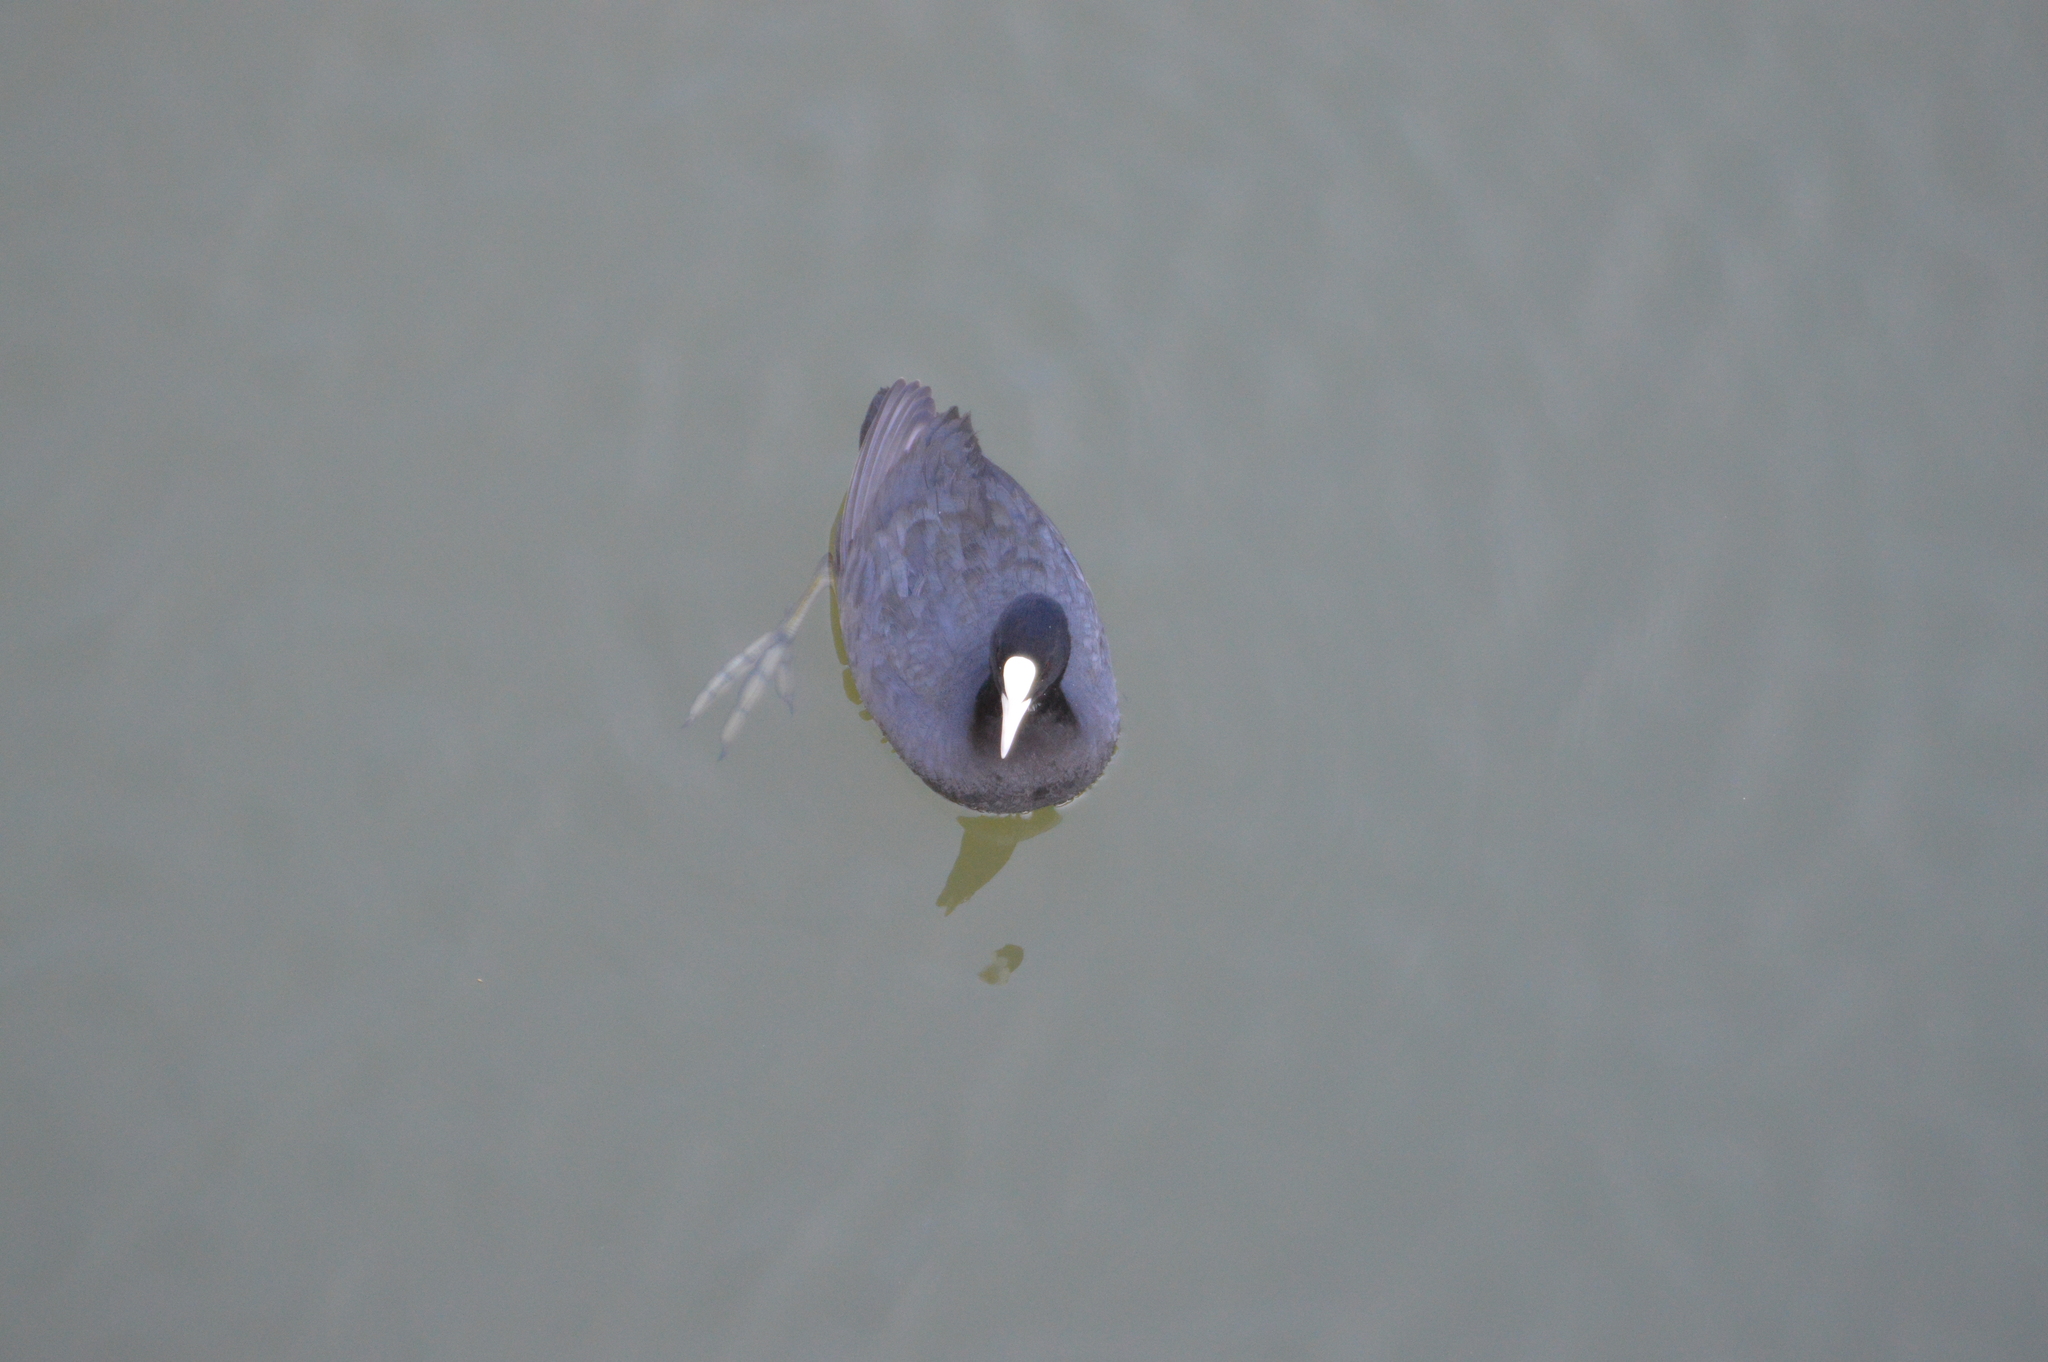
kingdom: Animalia
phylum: Chordata
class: Aves
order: Gruiformes
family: Rallidae
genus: Fulica
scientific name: Fulica atra
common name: Eurasian coot
